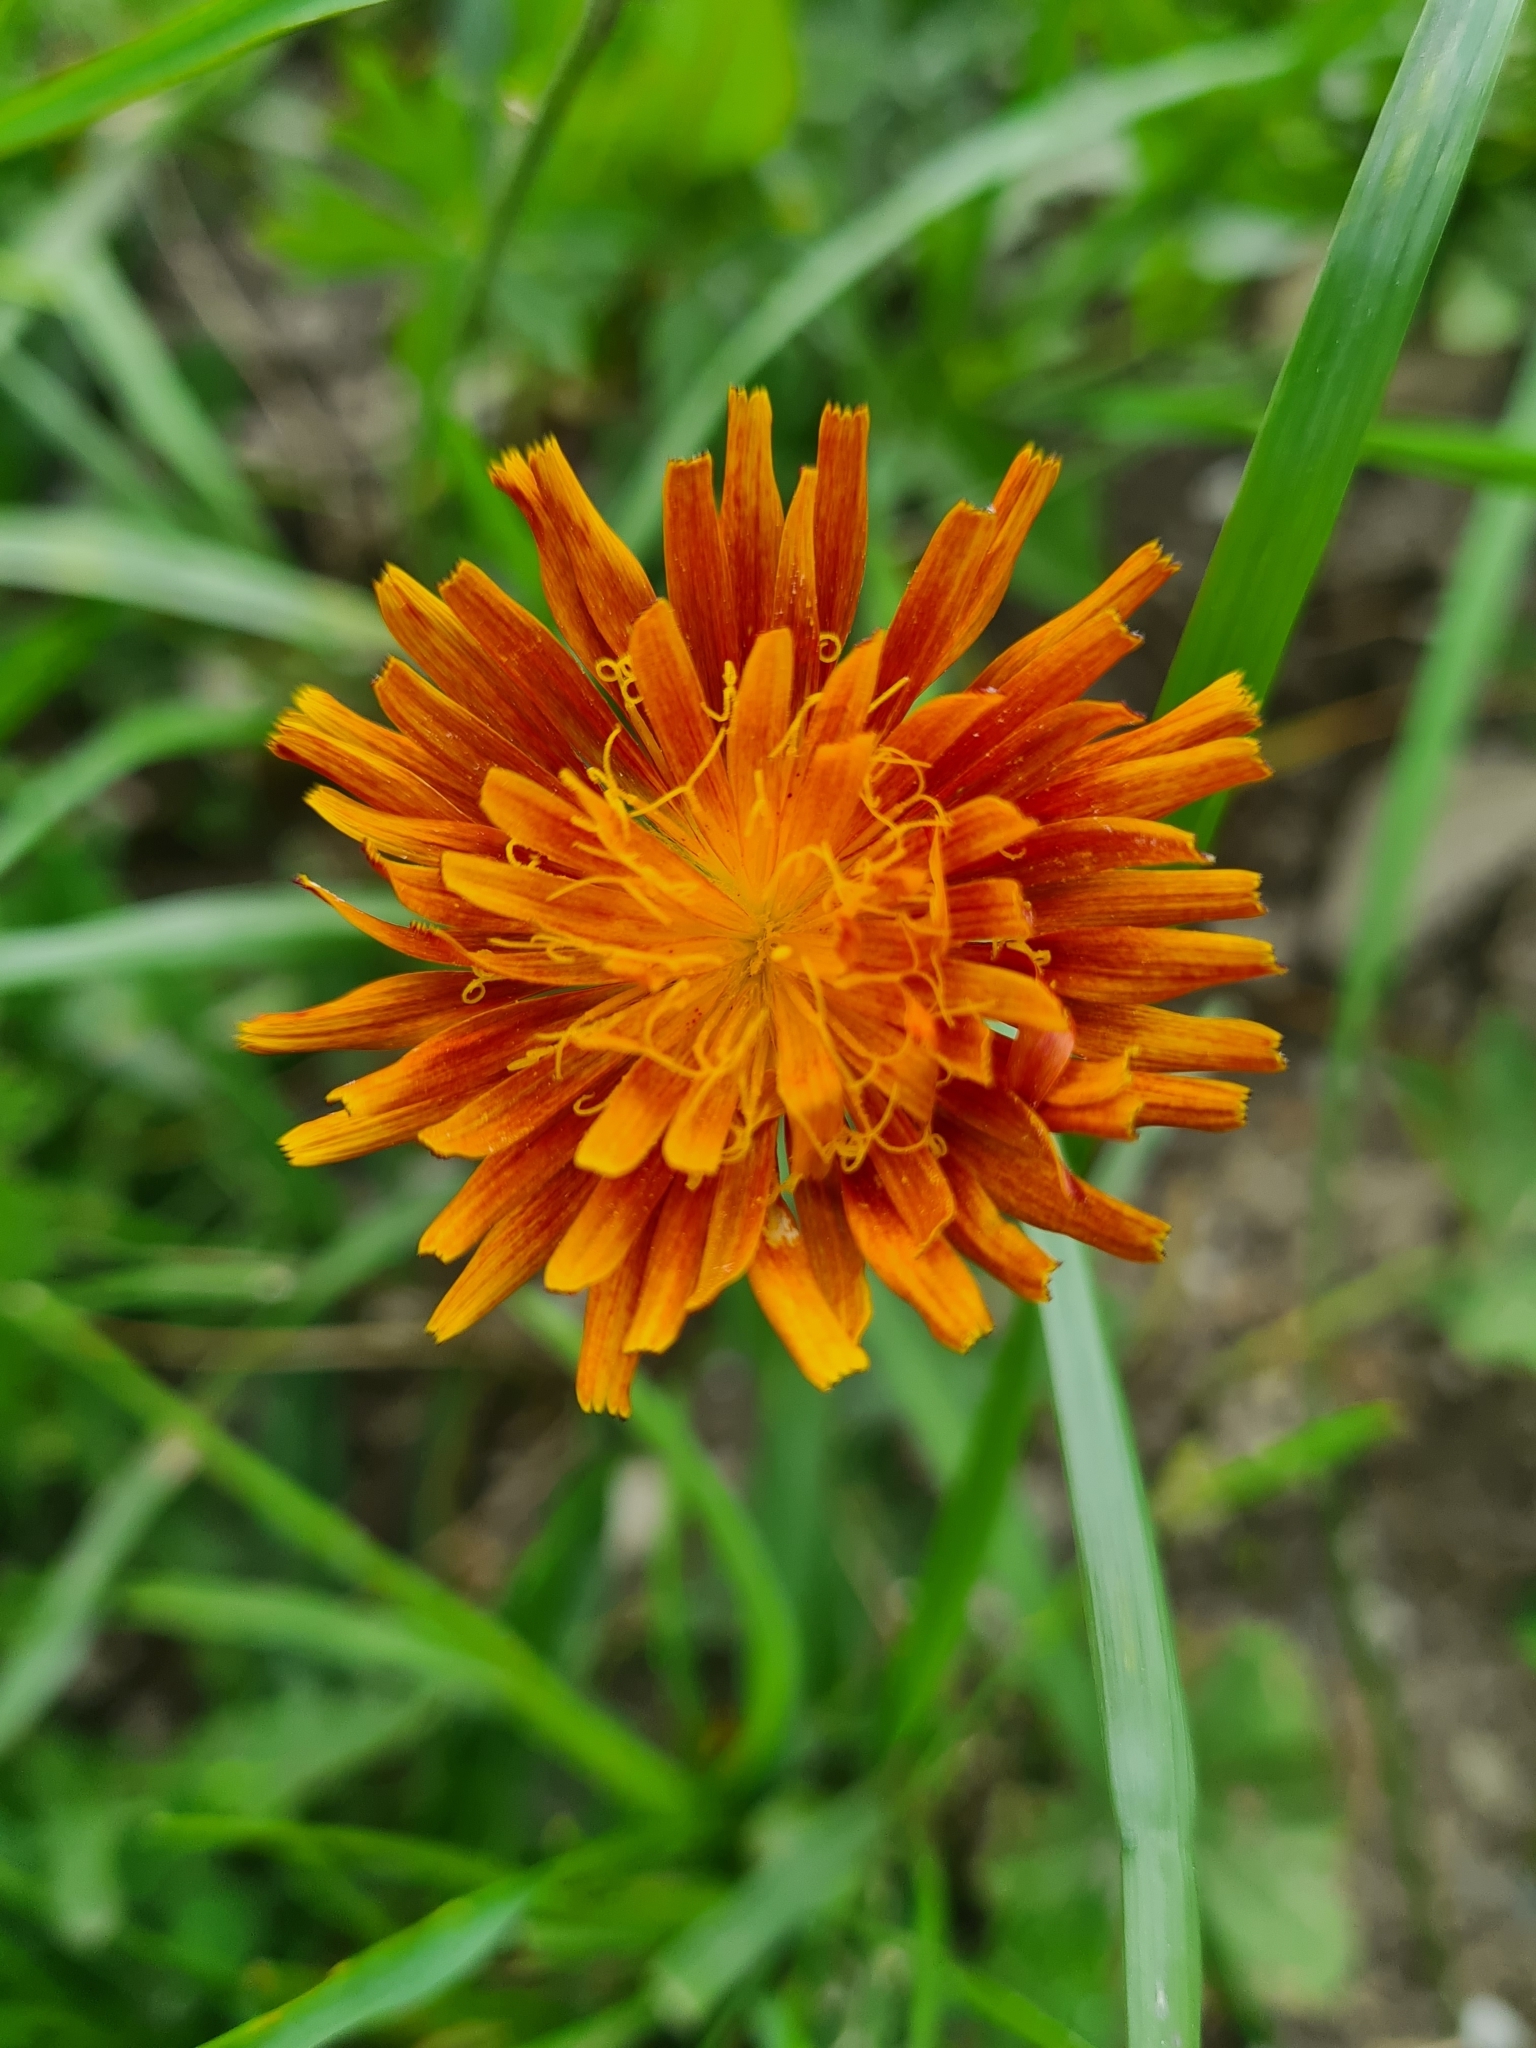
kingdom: Plantae
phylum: Tracheophyta
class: Magnoliopsida
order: Asterales
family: Asteraceae
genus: Crepis
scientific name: Crepis aurea
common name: Golden hawk's-beard
